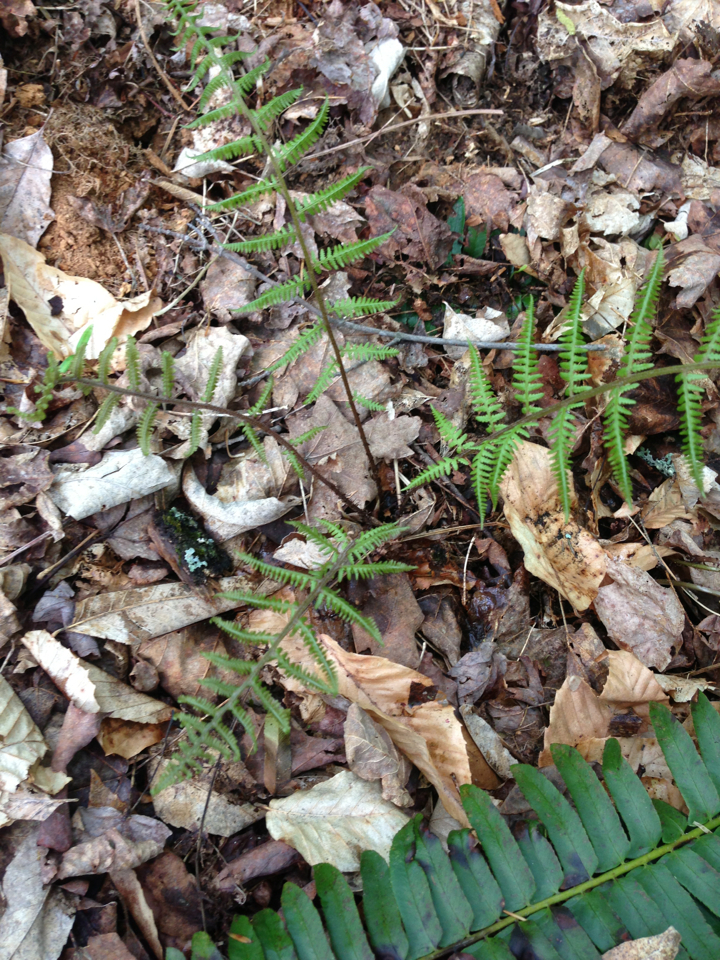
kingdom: Plantae
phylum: Tracheophyta
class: Polypodiopsida
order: Polypodiales
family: Athyriaceae
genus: Athyrium
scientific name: Athyrium angustum
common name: Northern lady fern
